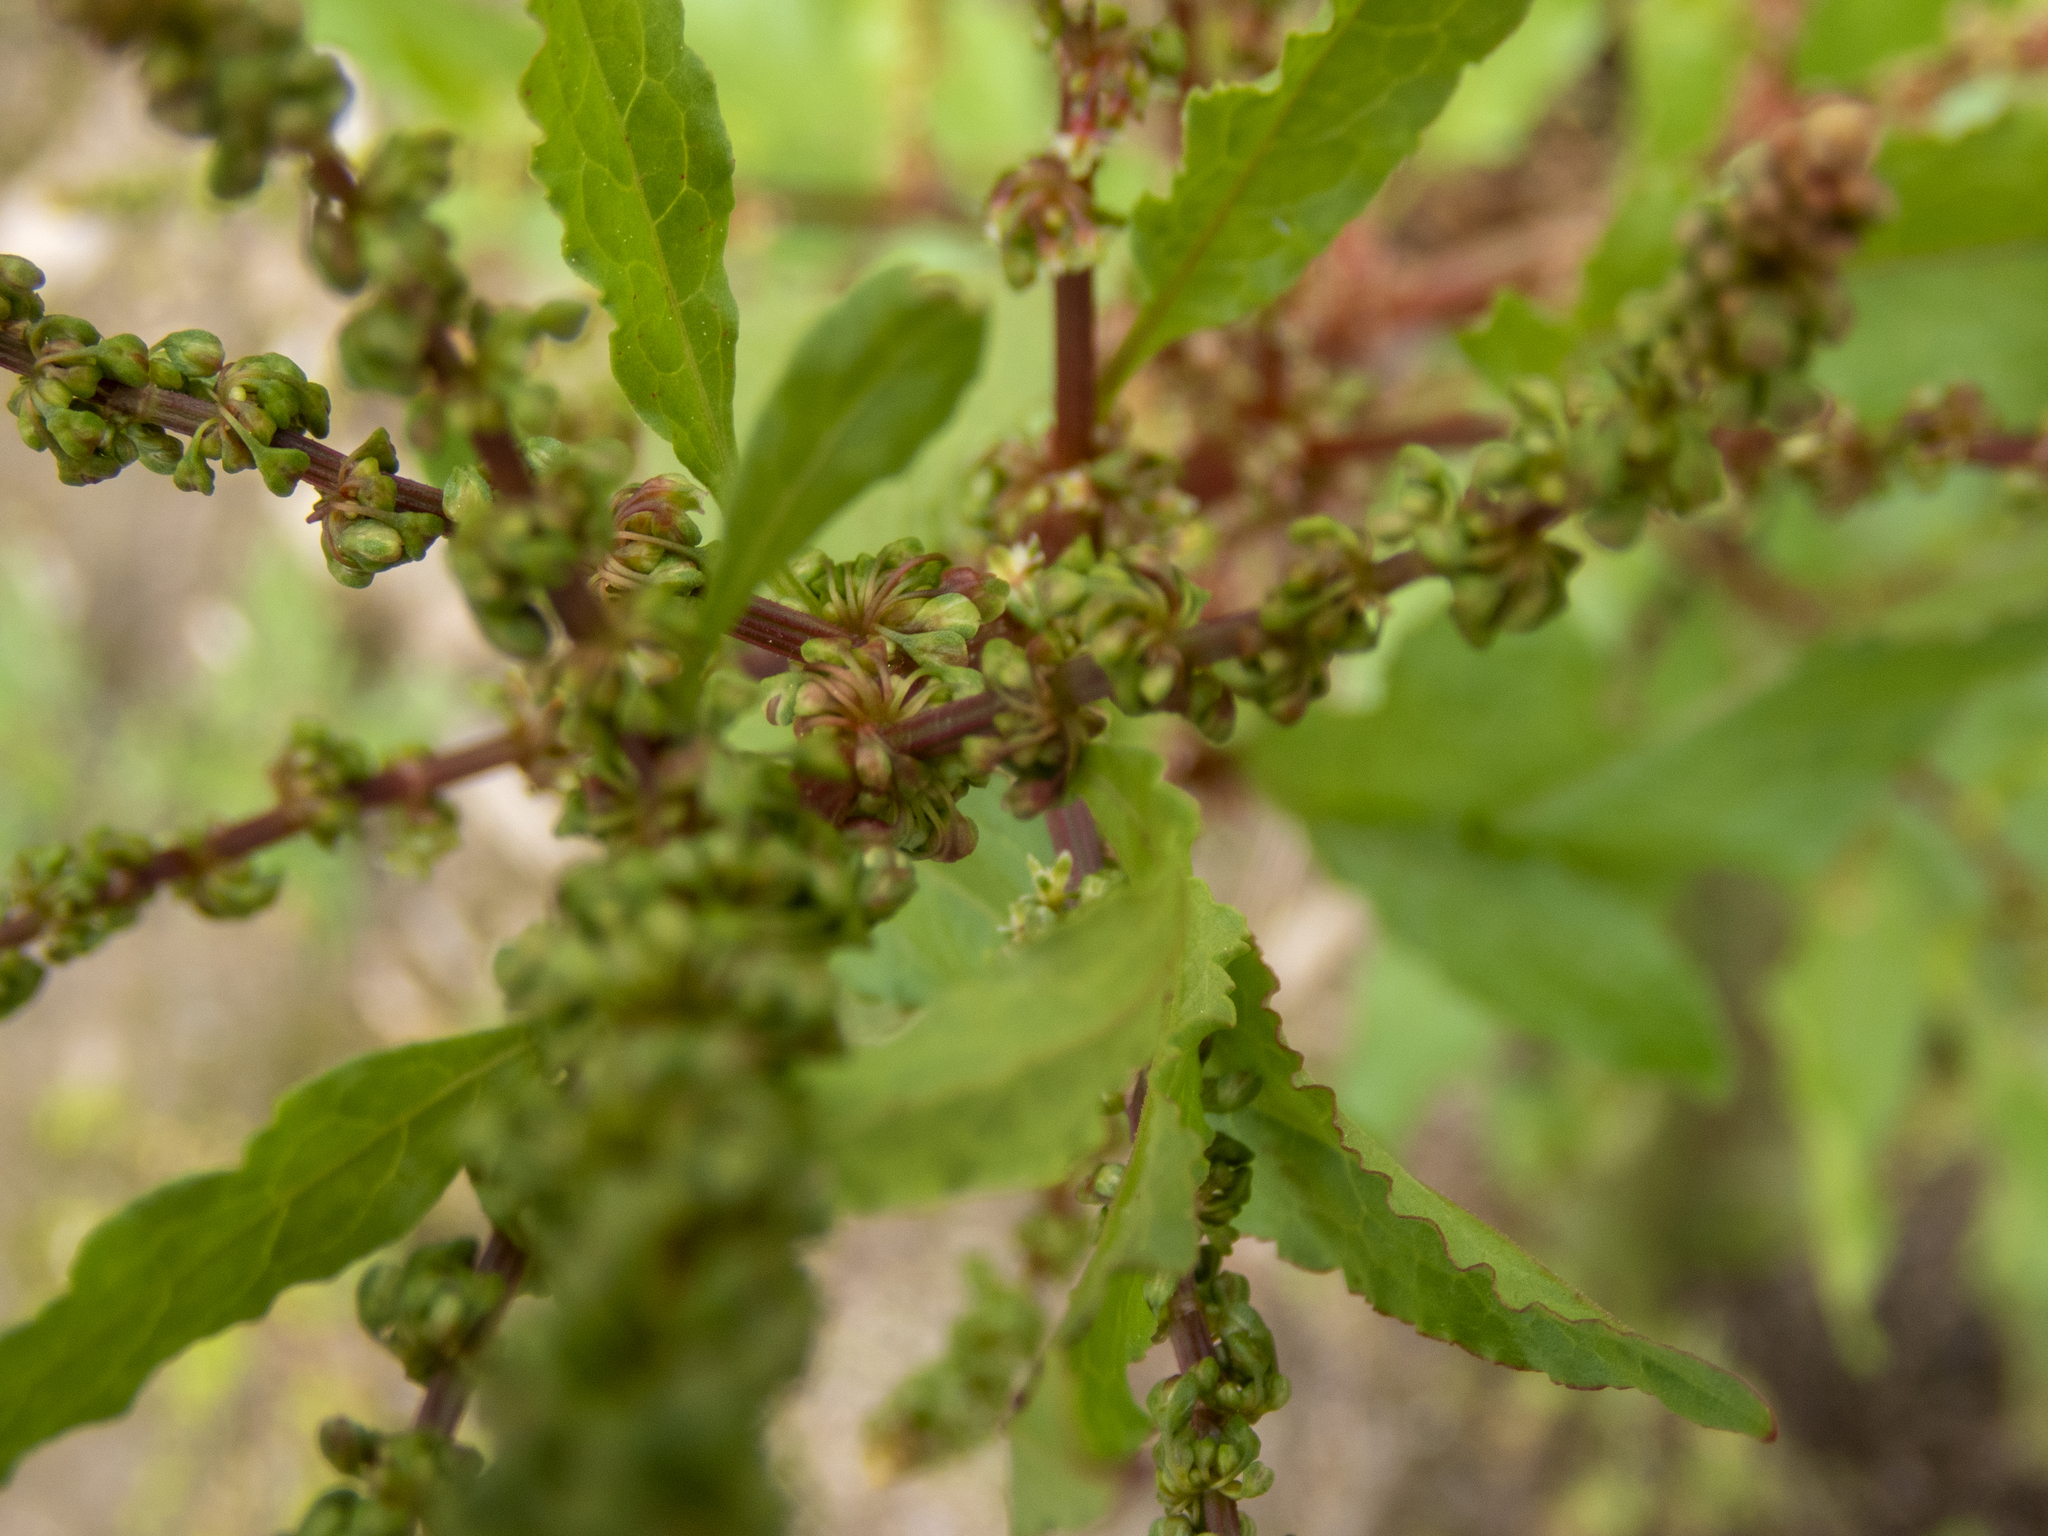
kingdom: Plantae
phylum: Tracheophyta
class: Magnoliopsida
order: Caryophyllales
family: Polygonaceae
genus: Rumex
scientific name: Rumex obtusifolius
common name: Bitter dock
